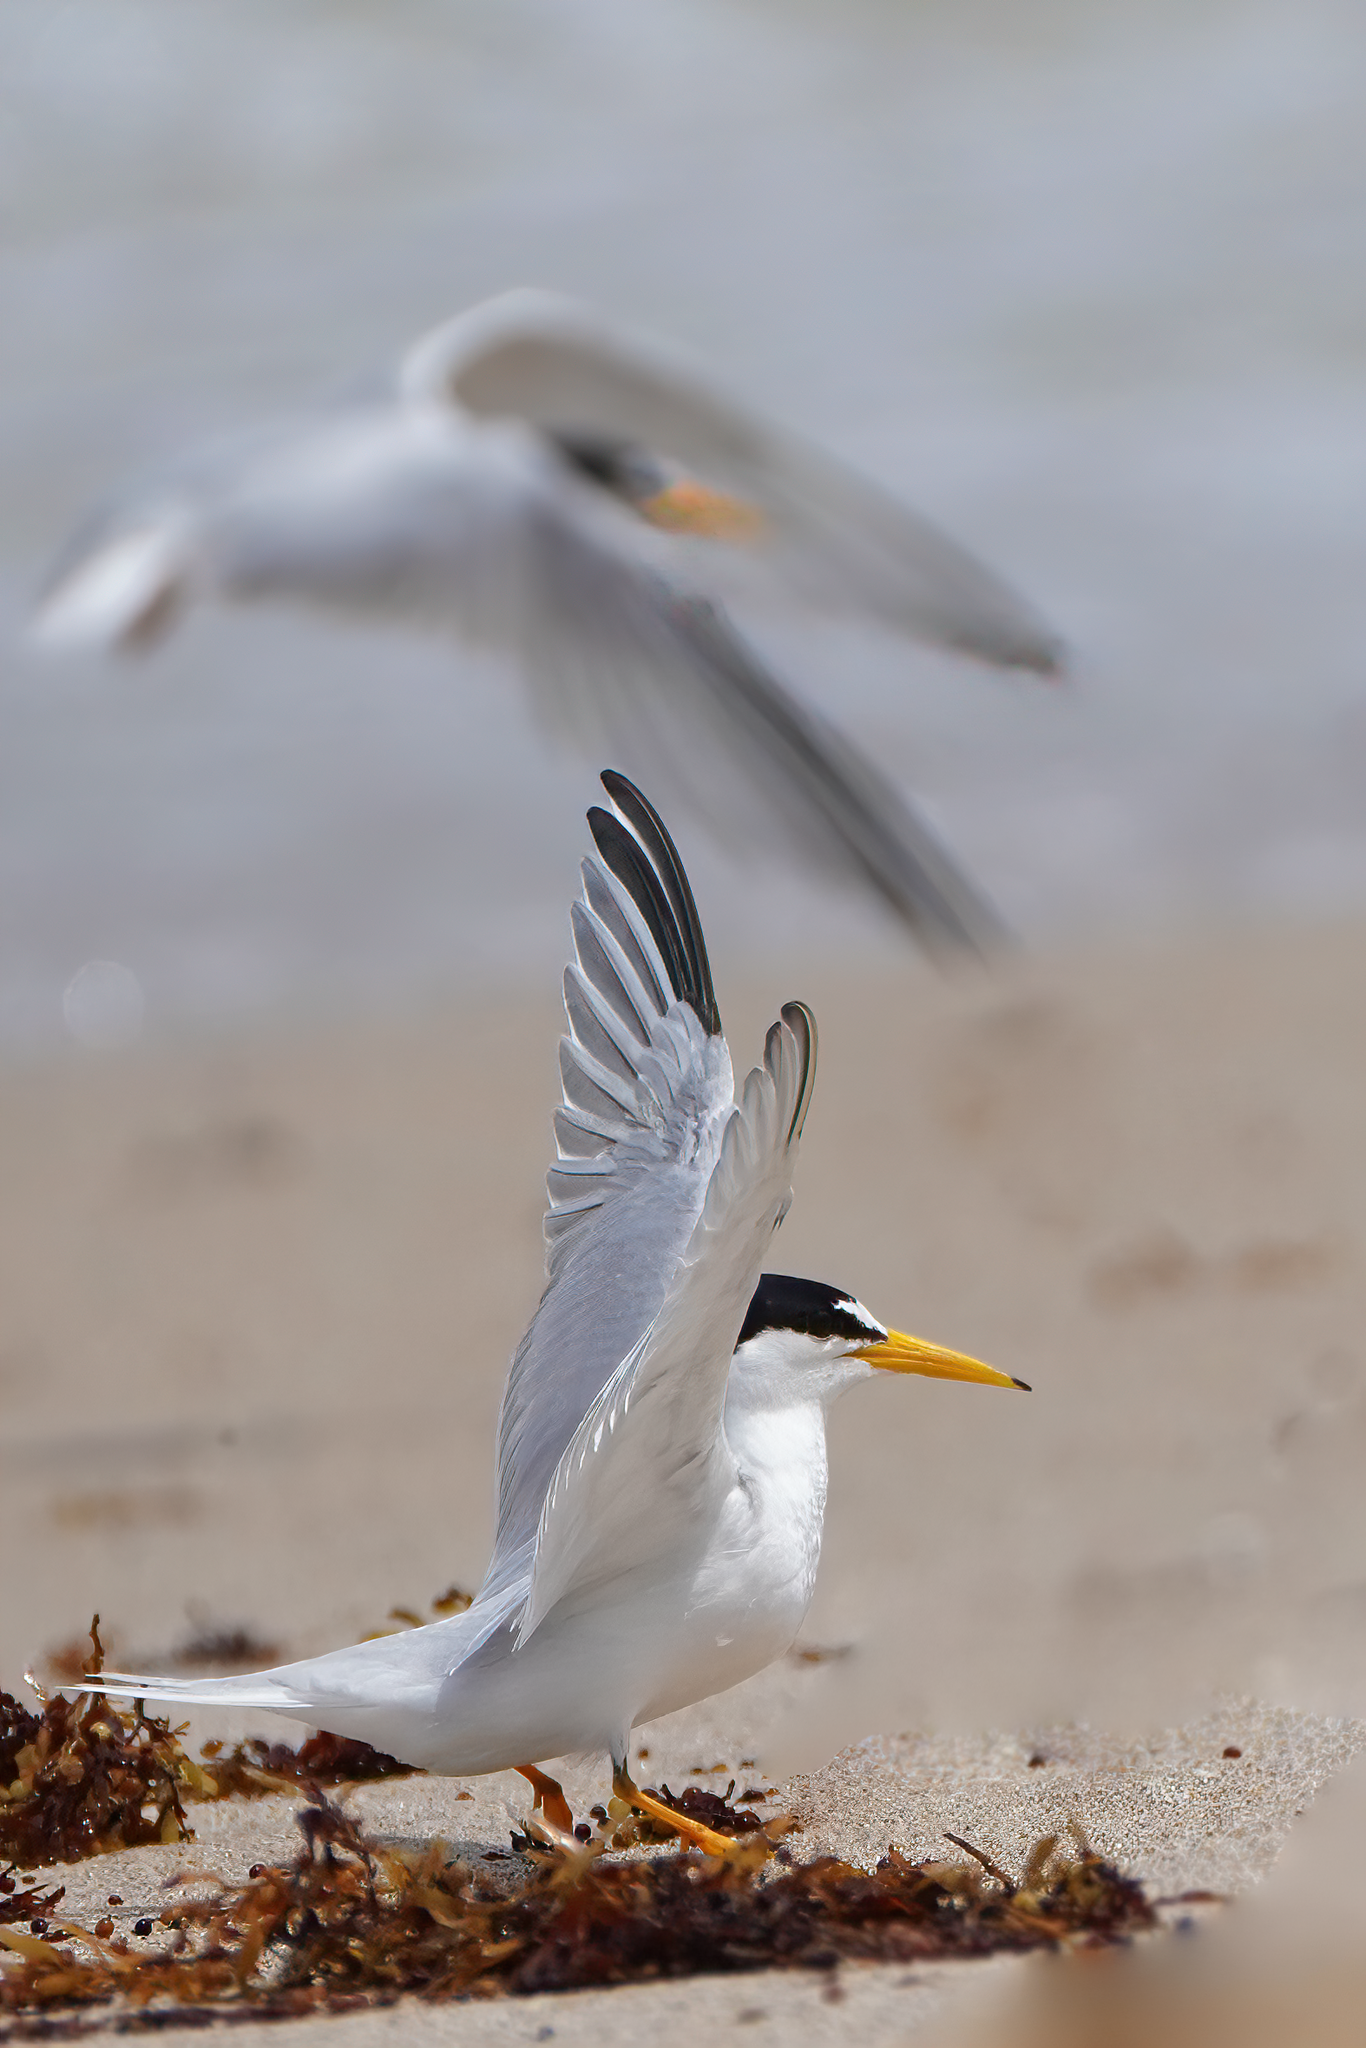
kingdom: Animalia
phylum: Chordata
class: Aves
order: Charadriiformes
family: Laridae
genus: Sternula
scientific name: Sternula antillarum
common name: Least tern
